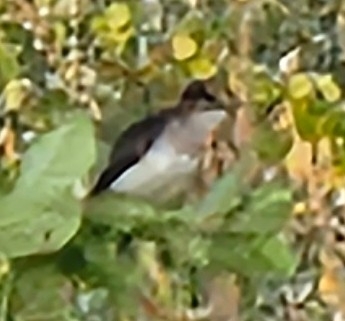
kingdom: Animalia
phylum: Chordata
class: Aves
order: Passeriformes
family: Tyrannidae
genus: Tyrannus
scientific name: Tyrannus tyrannus
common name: Eastern kingbird
